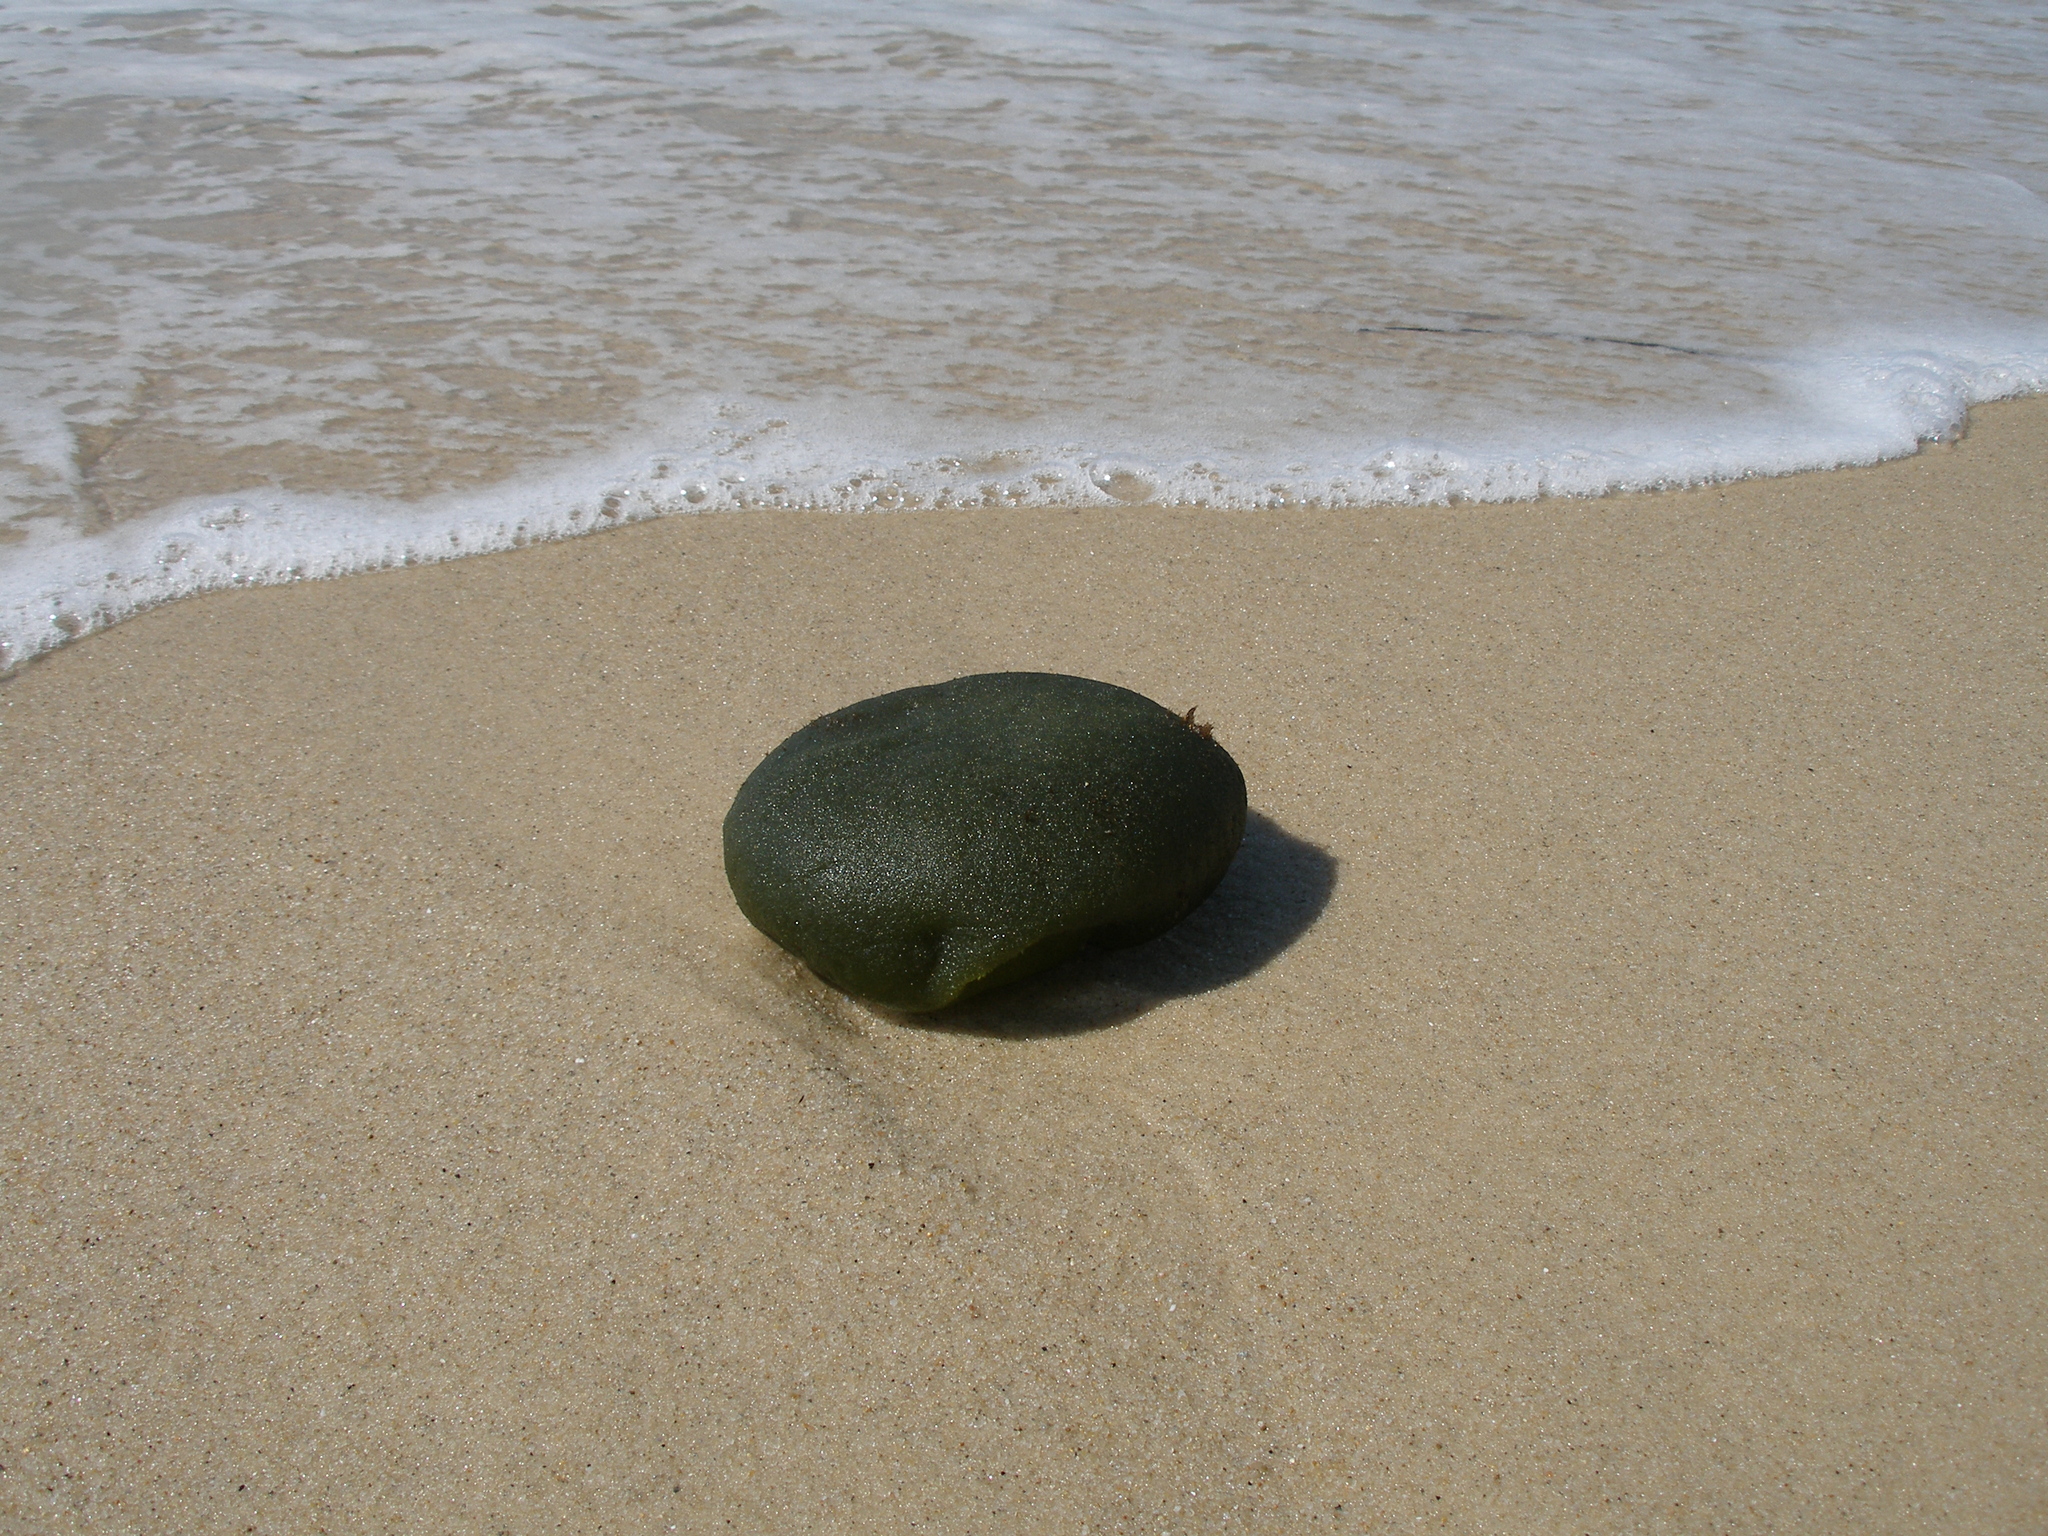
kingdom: Plantae
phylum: Chlorophyta
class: Ulvophyceae
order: Bryopsidales
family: Codiaceae
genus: Codium
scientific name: Codium bursa
